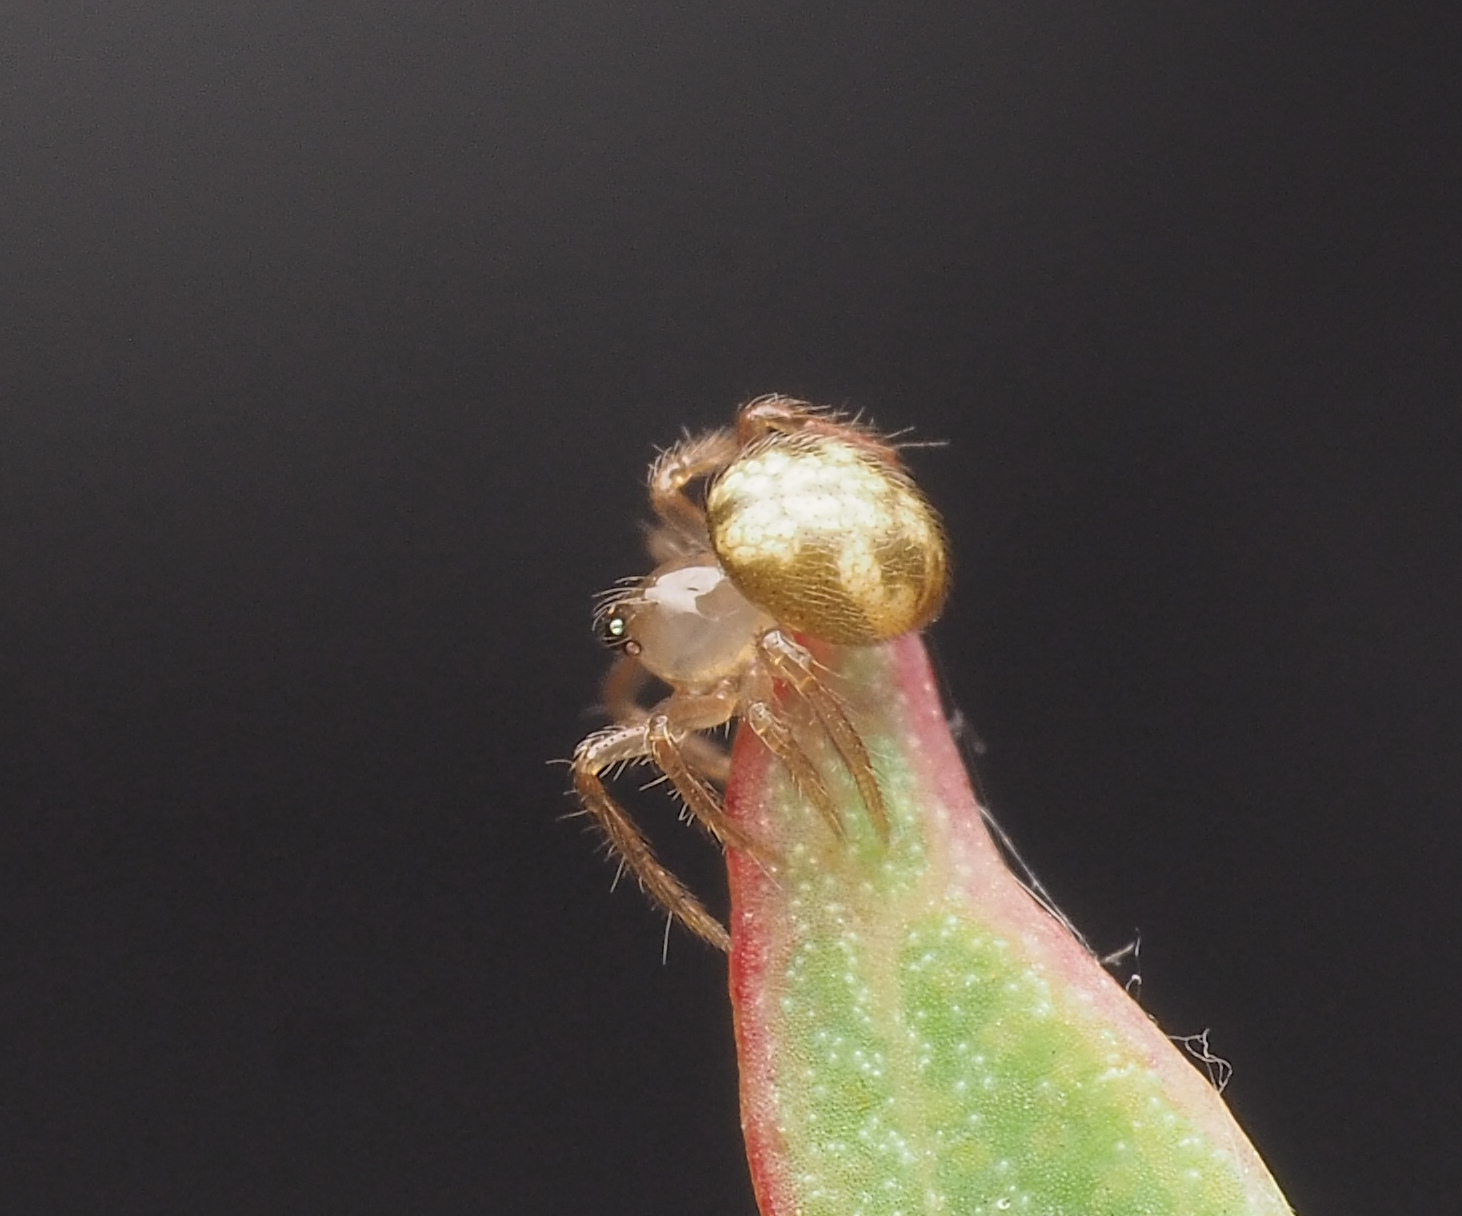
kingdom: Animalia
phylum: Arthropoda
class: Arachnida
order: Araneae
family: Theridiidae
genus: Phycosoma
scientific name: Phycosoma
